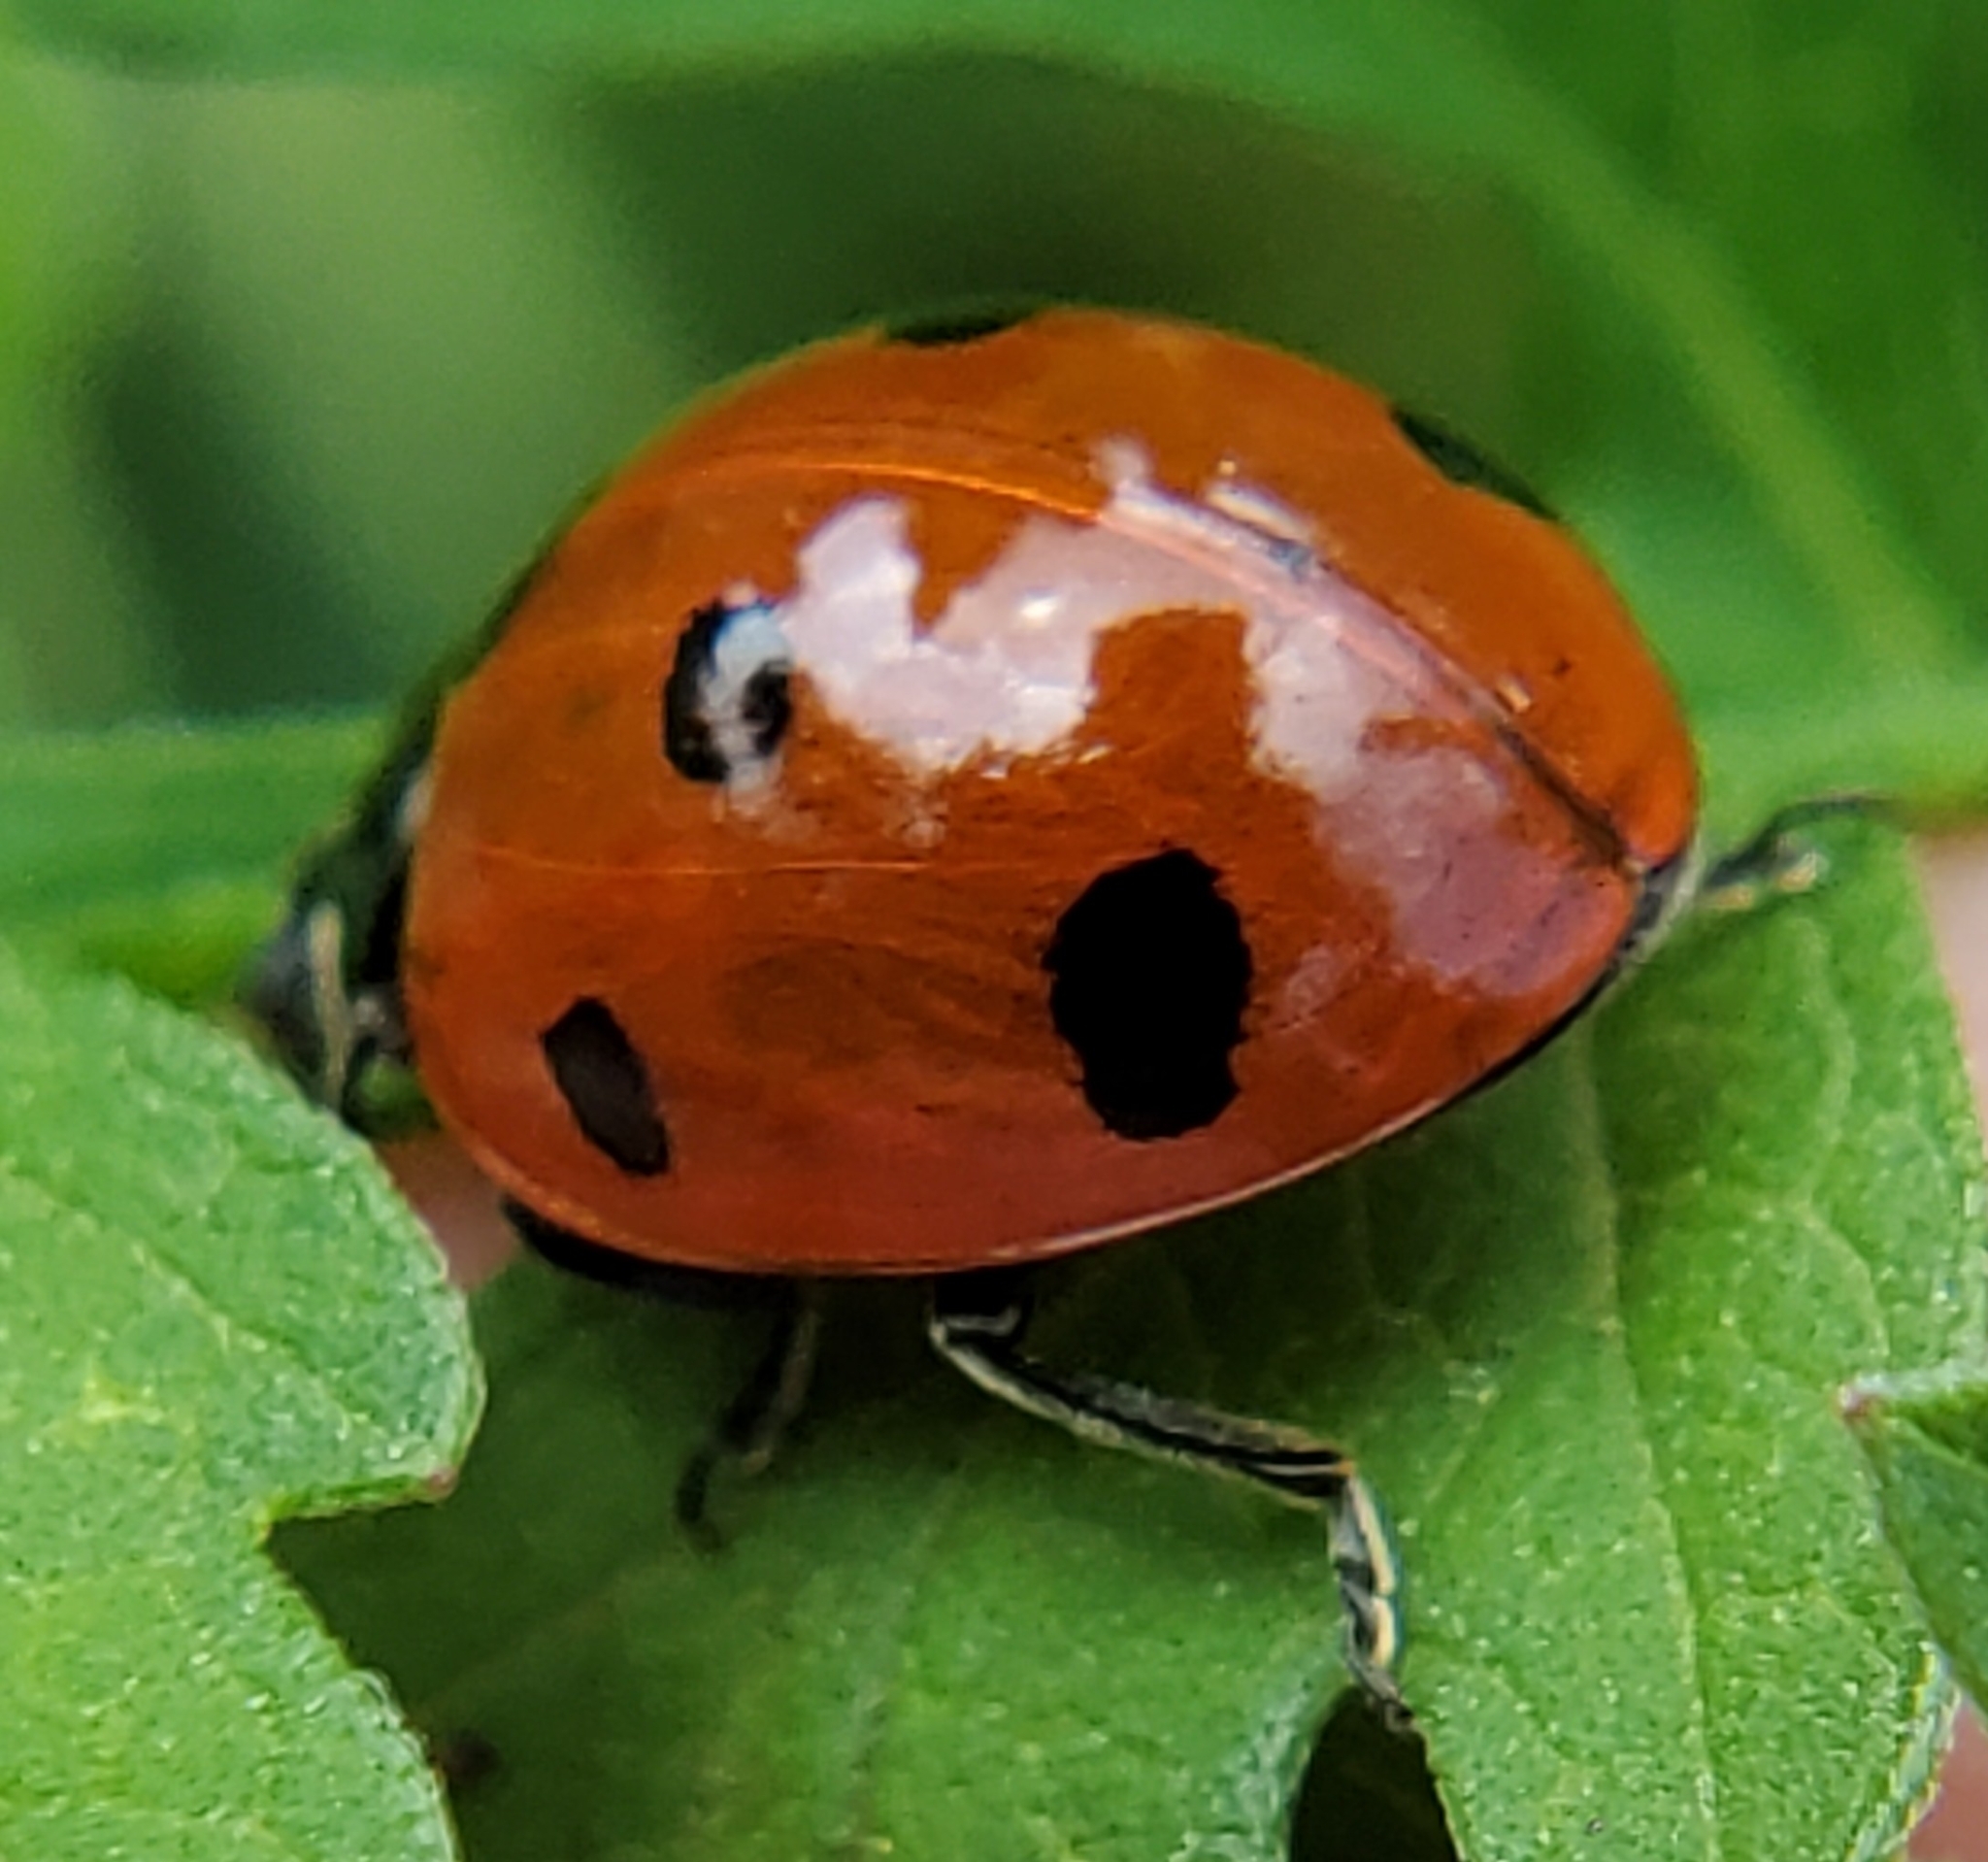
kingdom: Animalia
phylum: Arthropoda
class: Insecta
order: Coleoptera
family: Coccinellidae
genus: Coccinella
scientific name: Coccinella septempunctata
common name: Sevenspotted lady beetle
